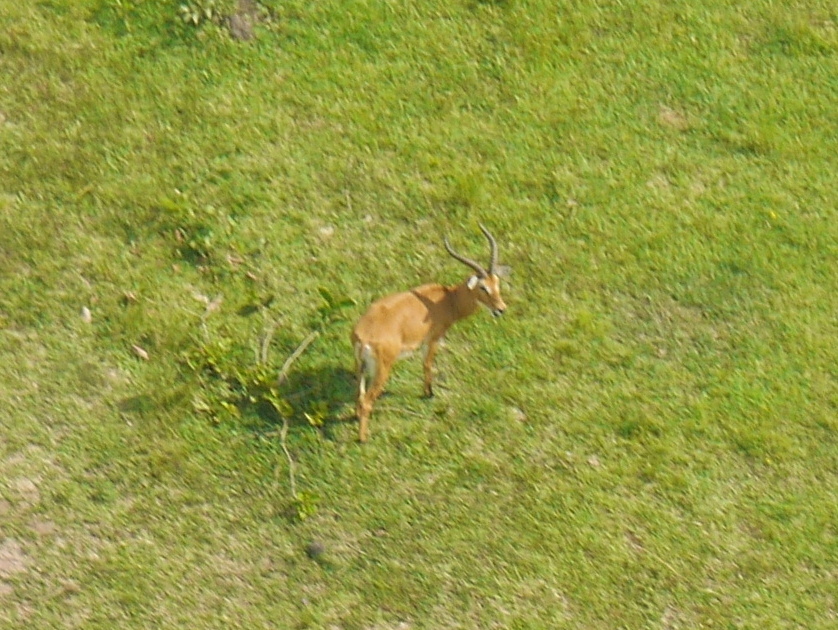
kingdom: Animalia
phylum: Chordata
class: Mammalia
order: Artiodactyla
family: Bovidae
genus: Kobus
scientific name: Kobus kob
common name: Kob
